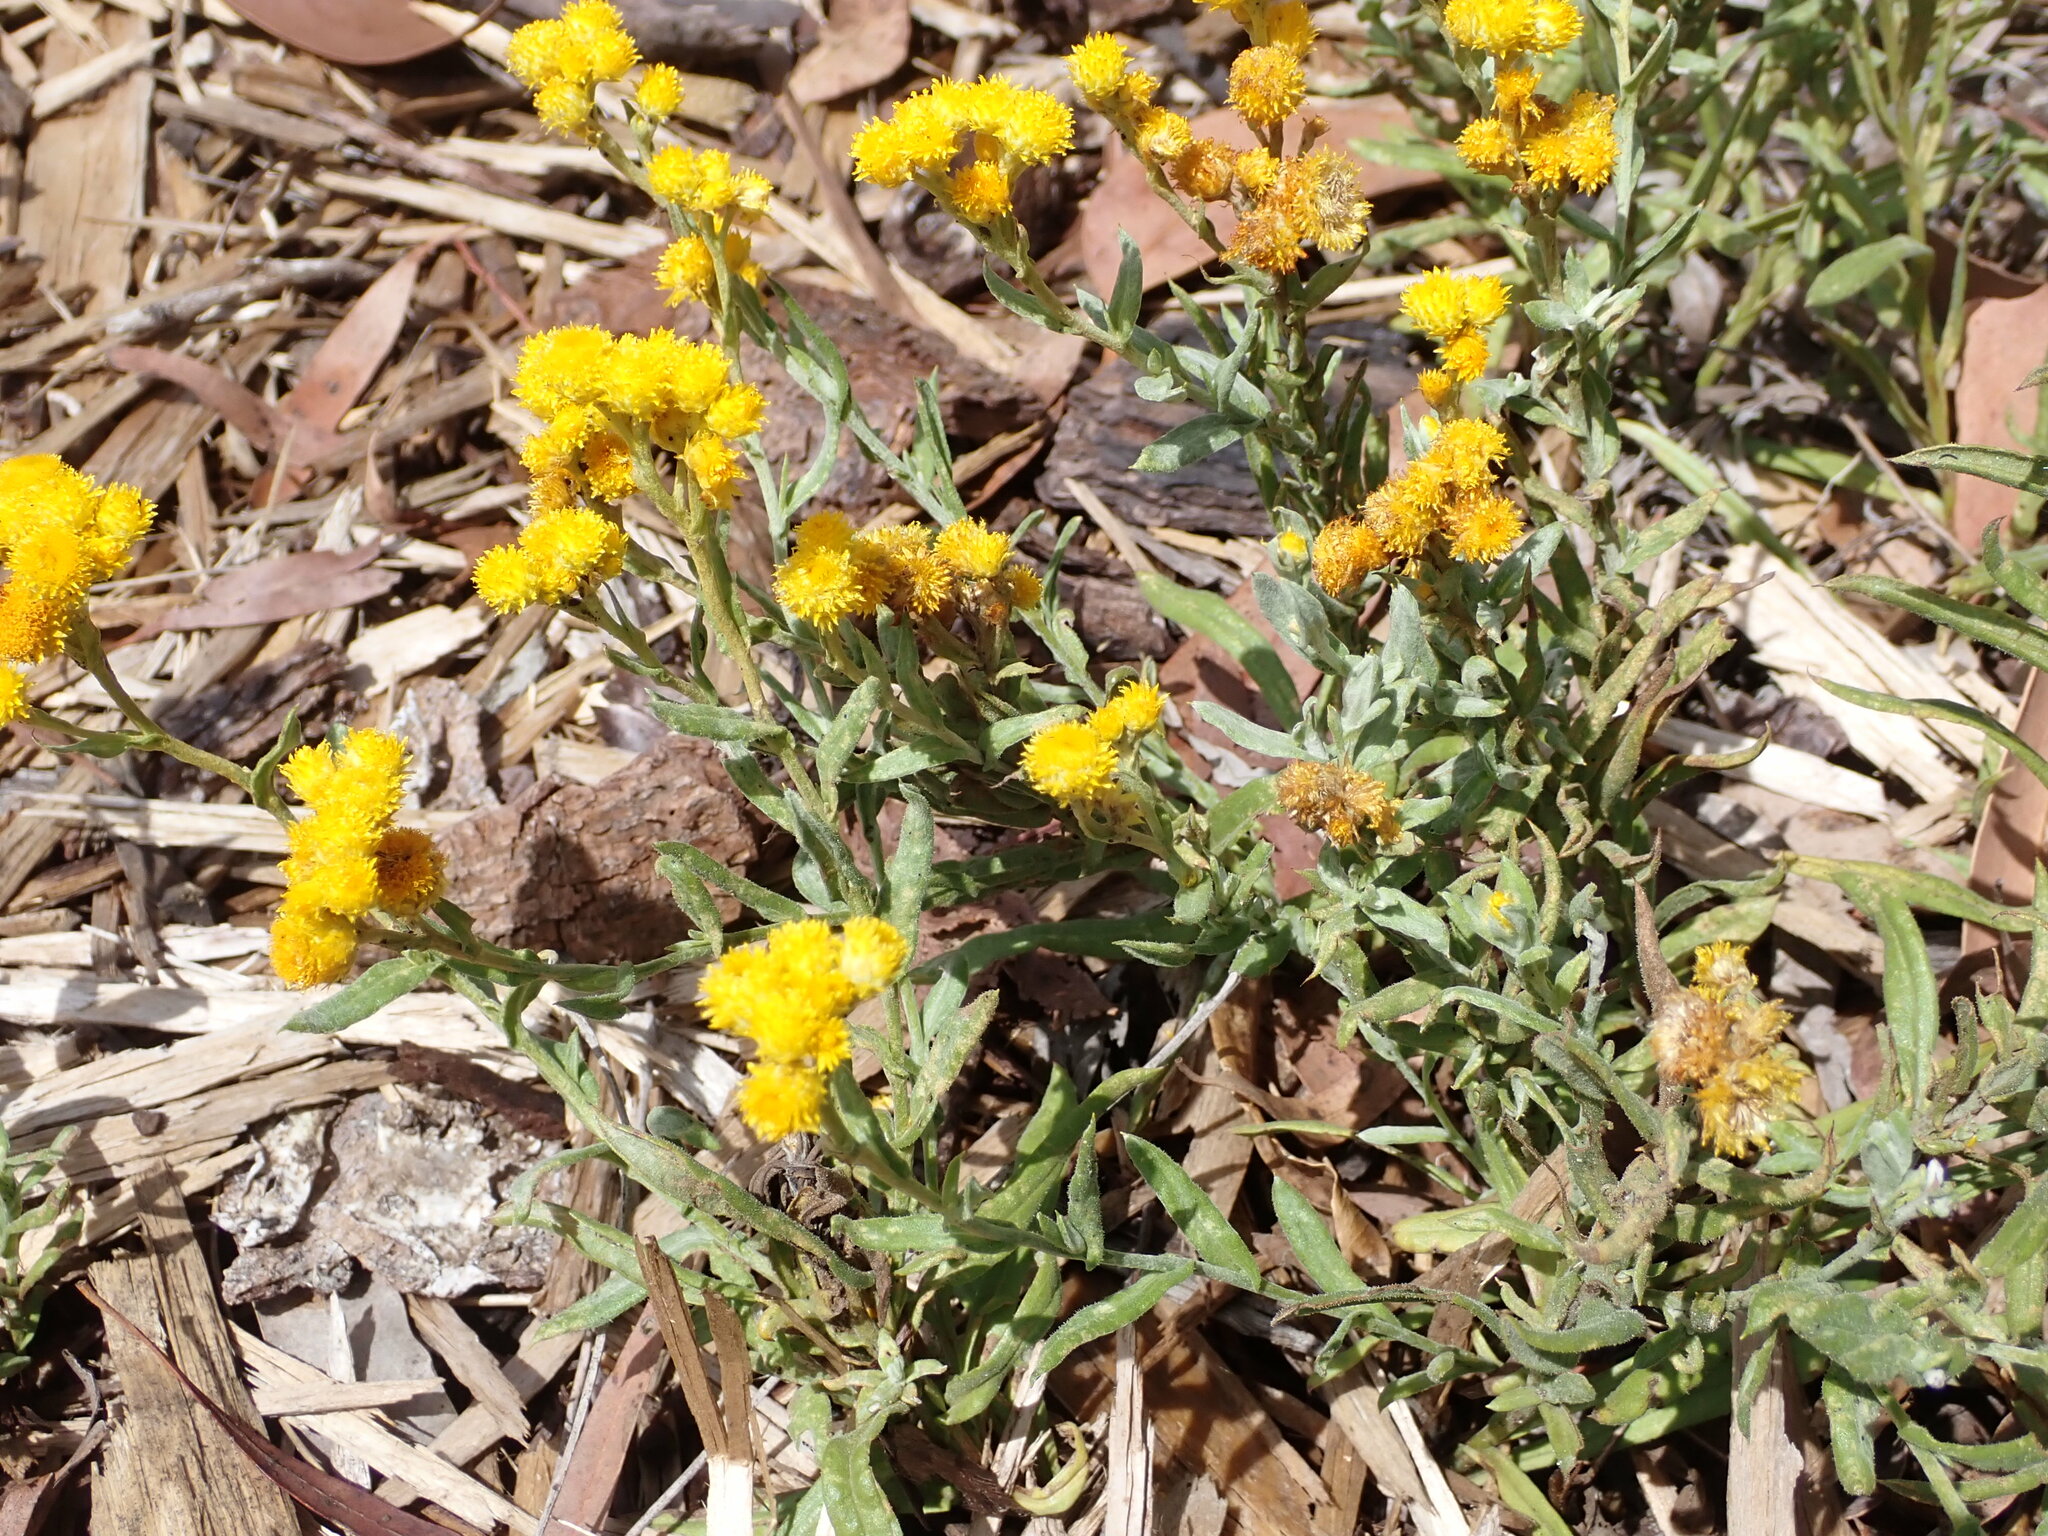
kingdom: Plantae
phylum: Tracheophyta
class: Magnoliopsida
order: Asterales
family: Asteraceae
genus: Chrysocephalum
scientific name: Chrysocephalum apiculatum
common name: Common everlasting
